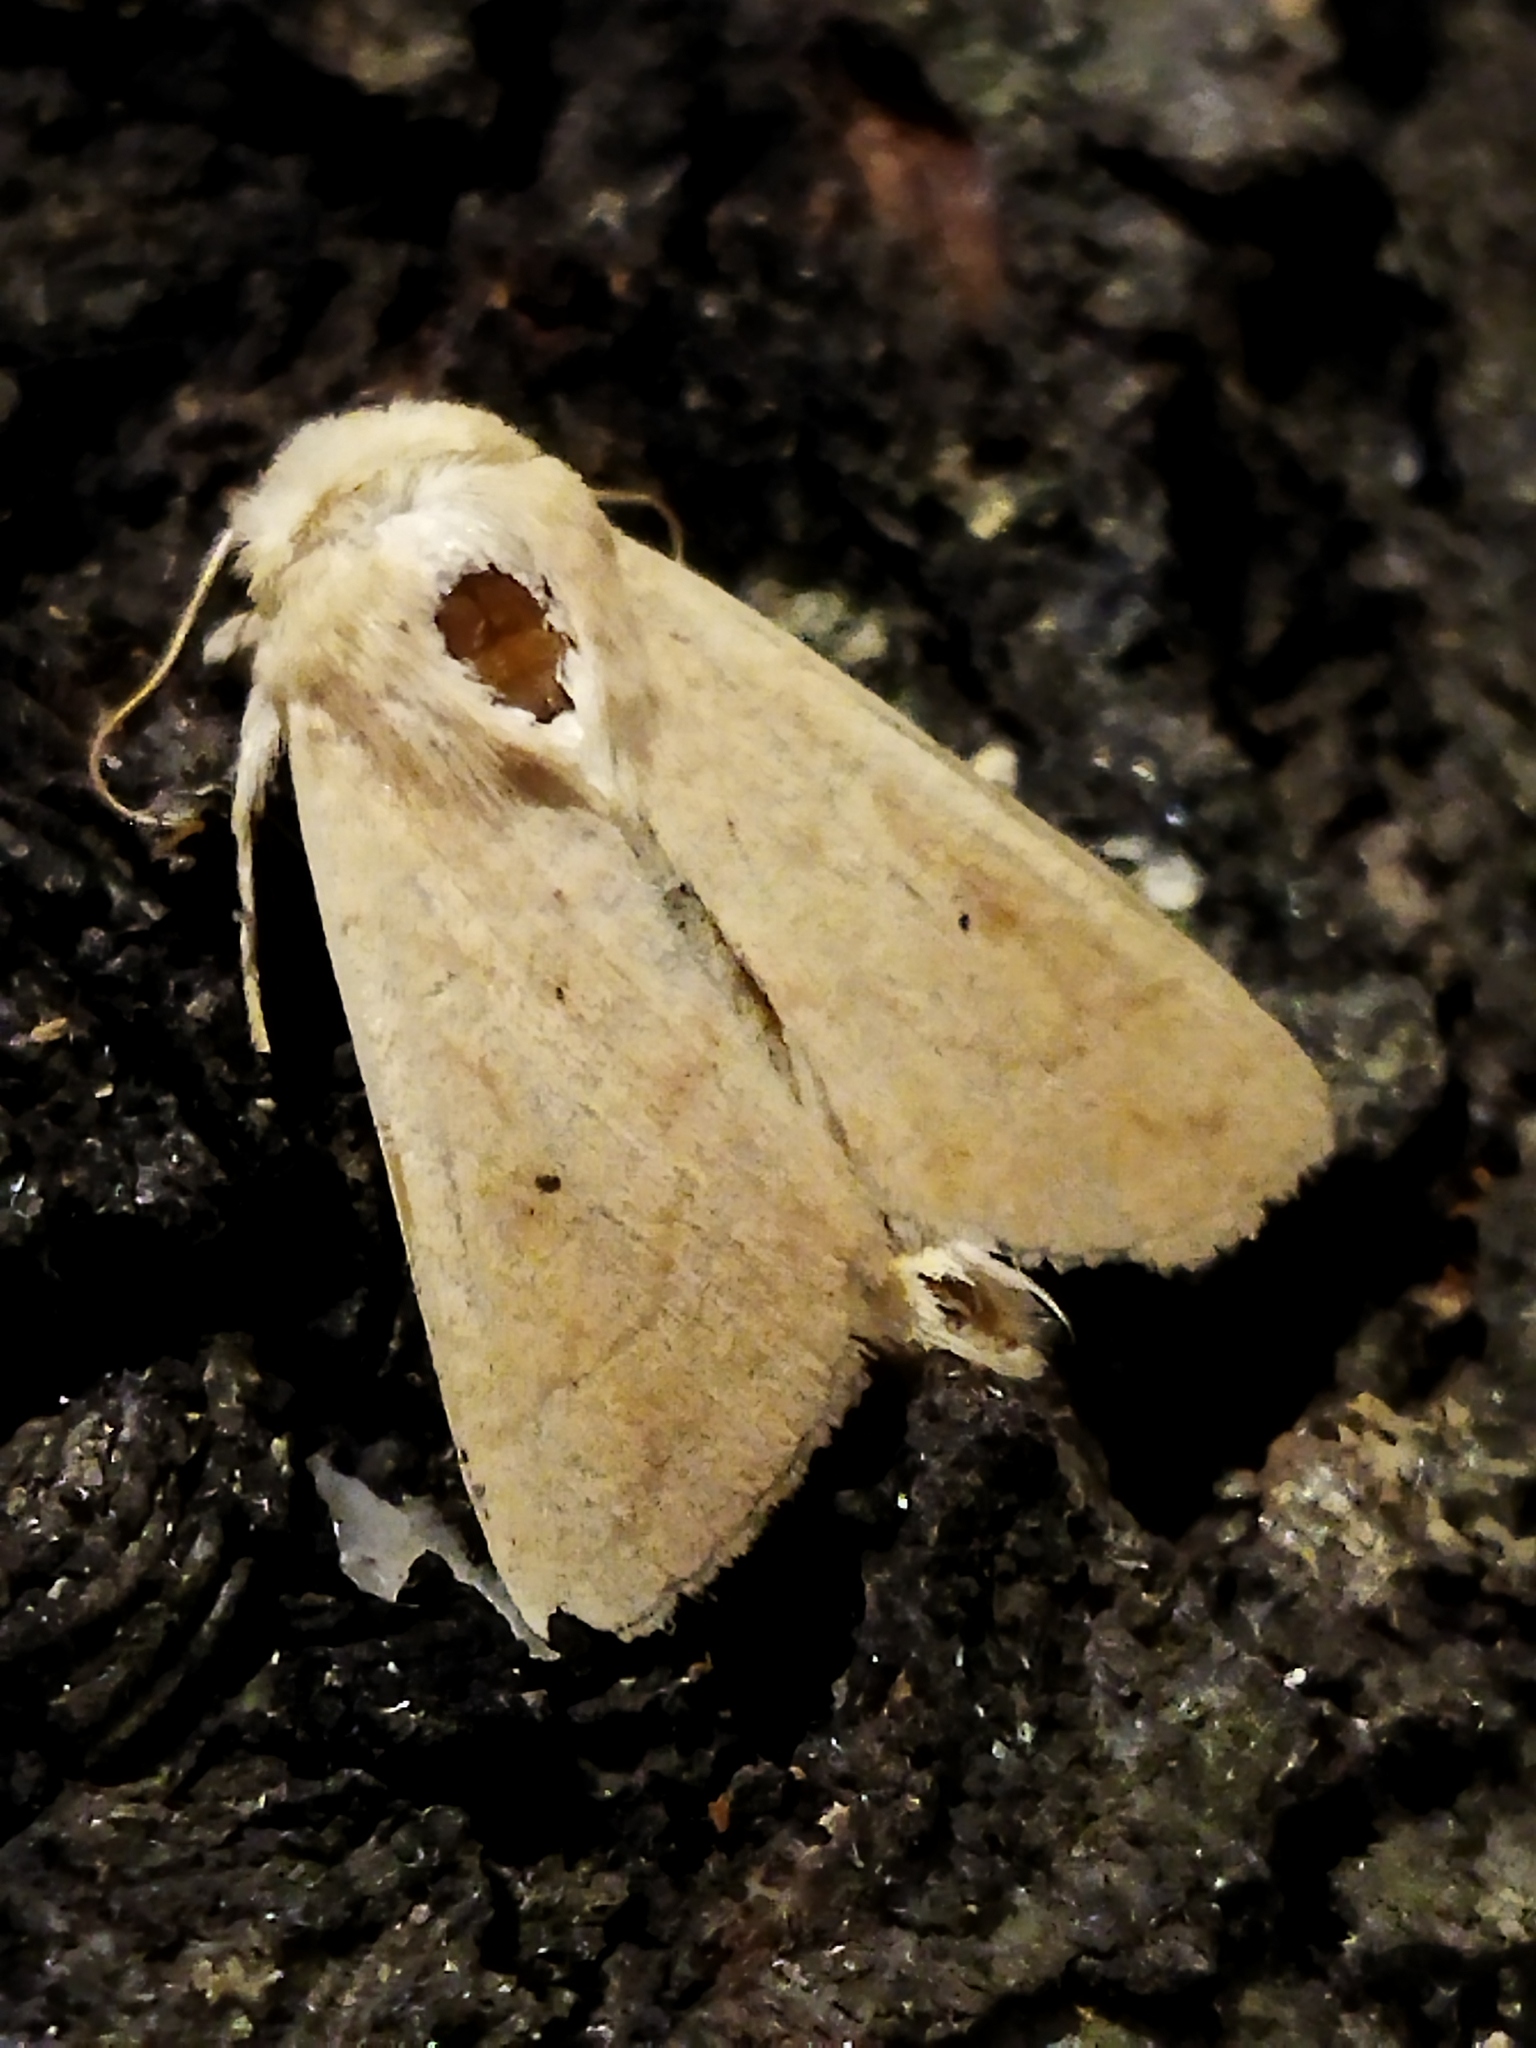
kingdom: Animalia
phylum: Arthropoda
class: Insecta
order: Lepidoptera
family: Noctuidae
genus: Mythimna
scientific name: Mythimna vitellina
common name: Delicate
